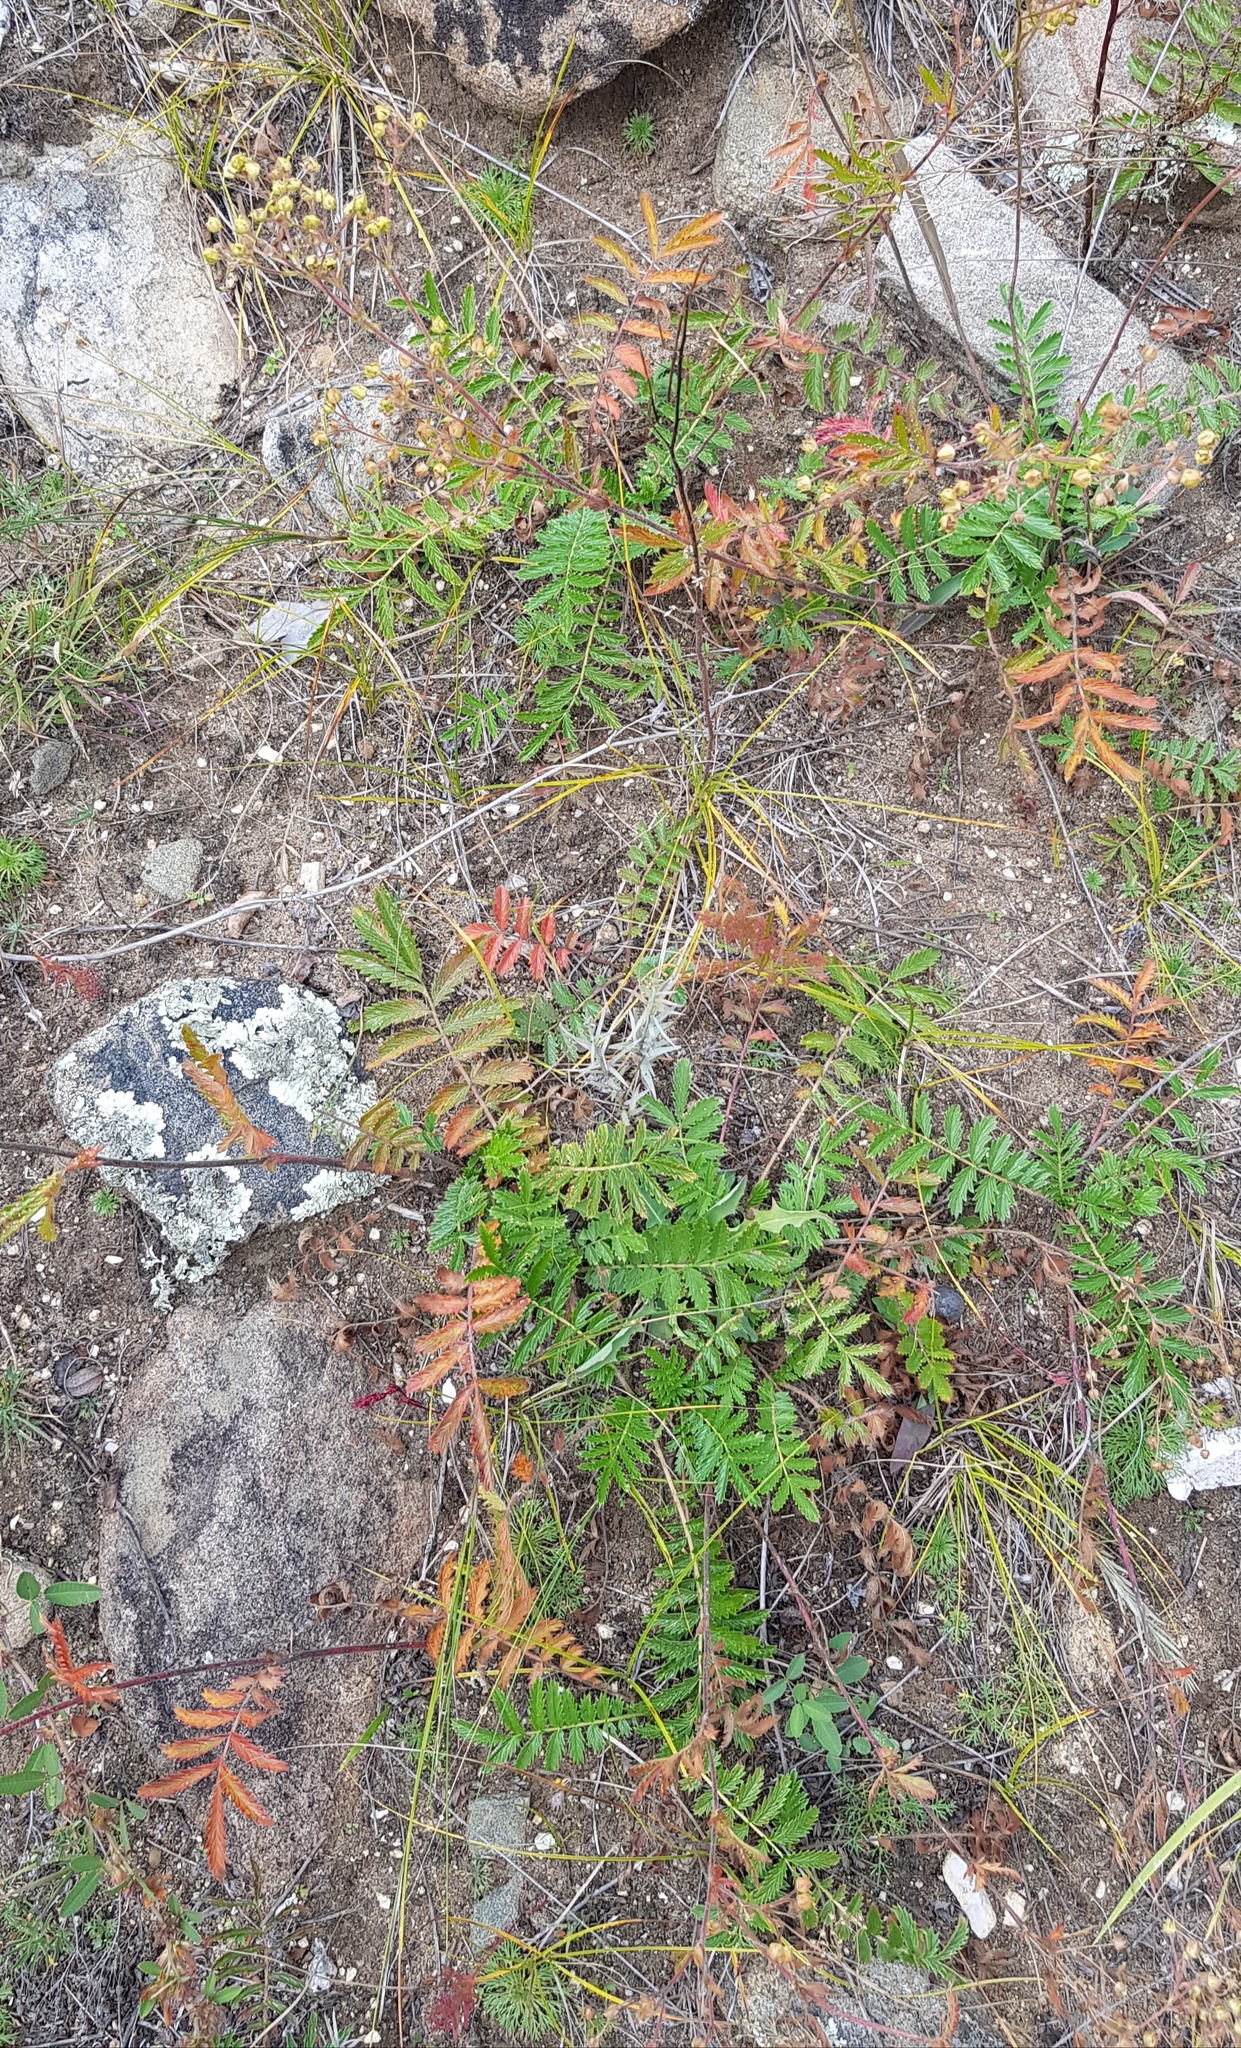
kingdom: Plantae
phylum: Tracheophyta
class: Magnoliopsida
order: Rosales
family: Rosaceae
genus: Potentilla
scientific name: Potentilla tanacetifolia
